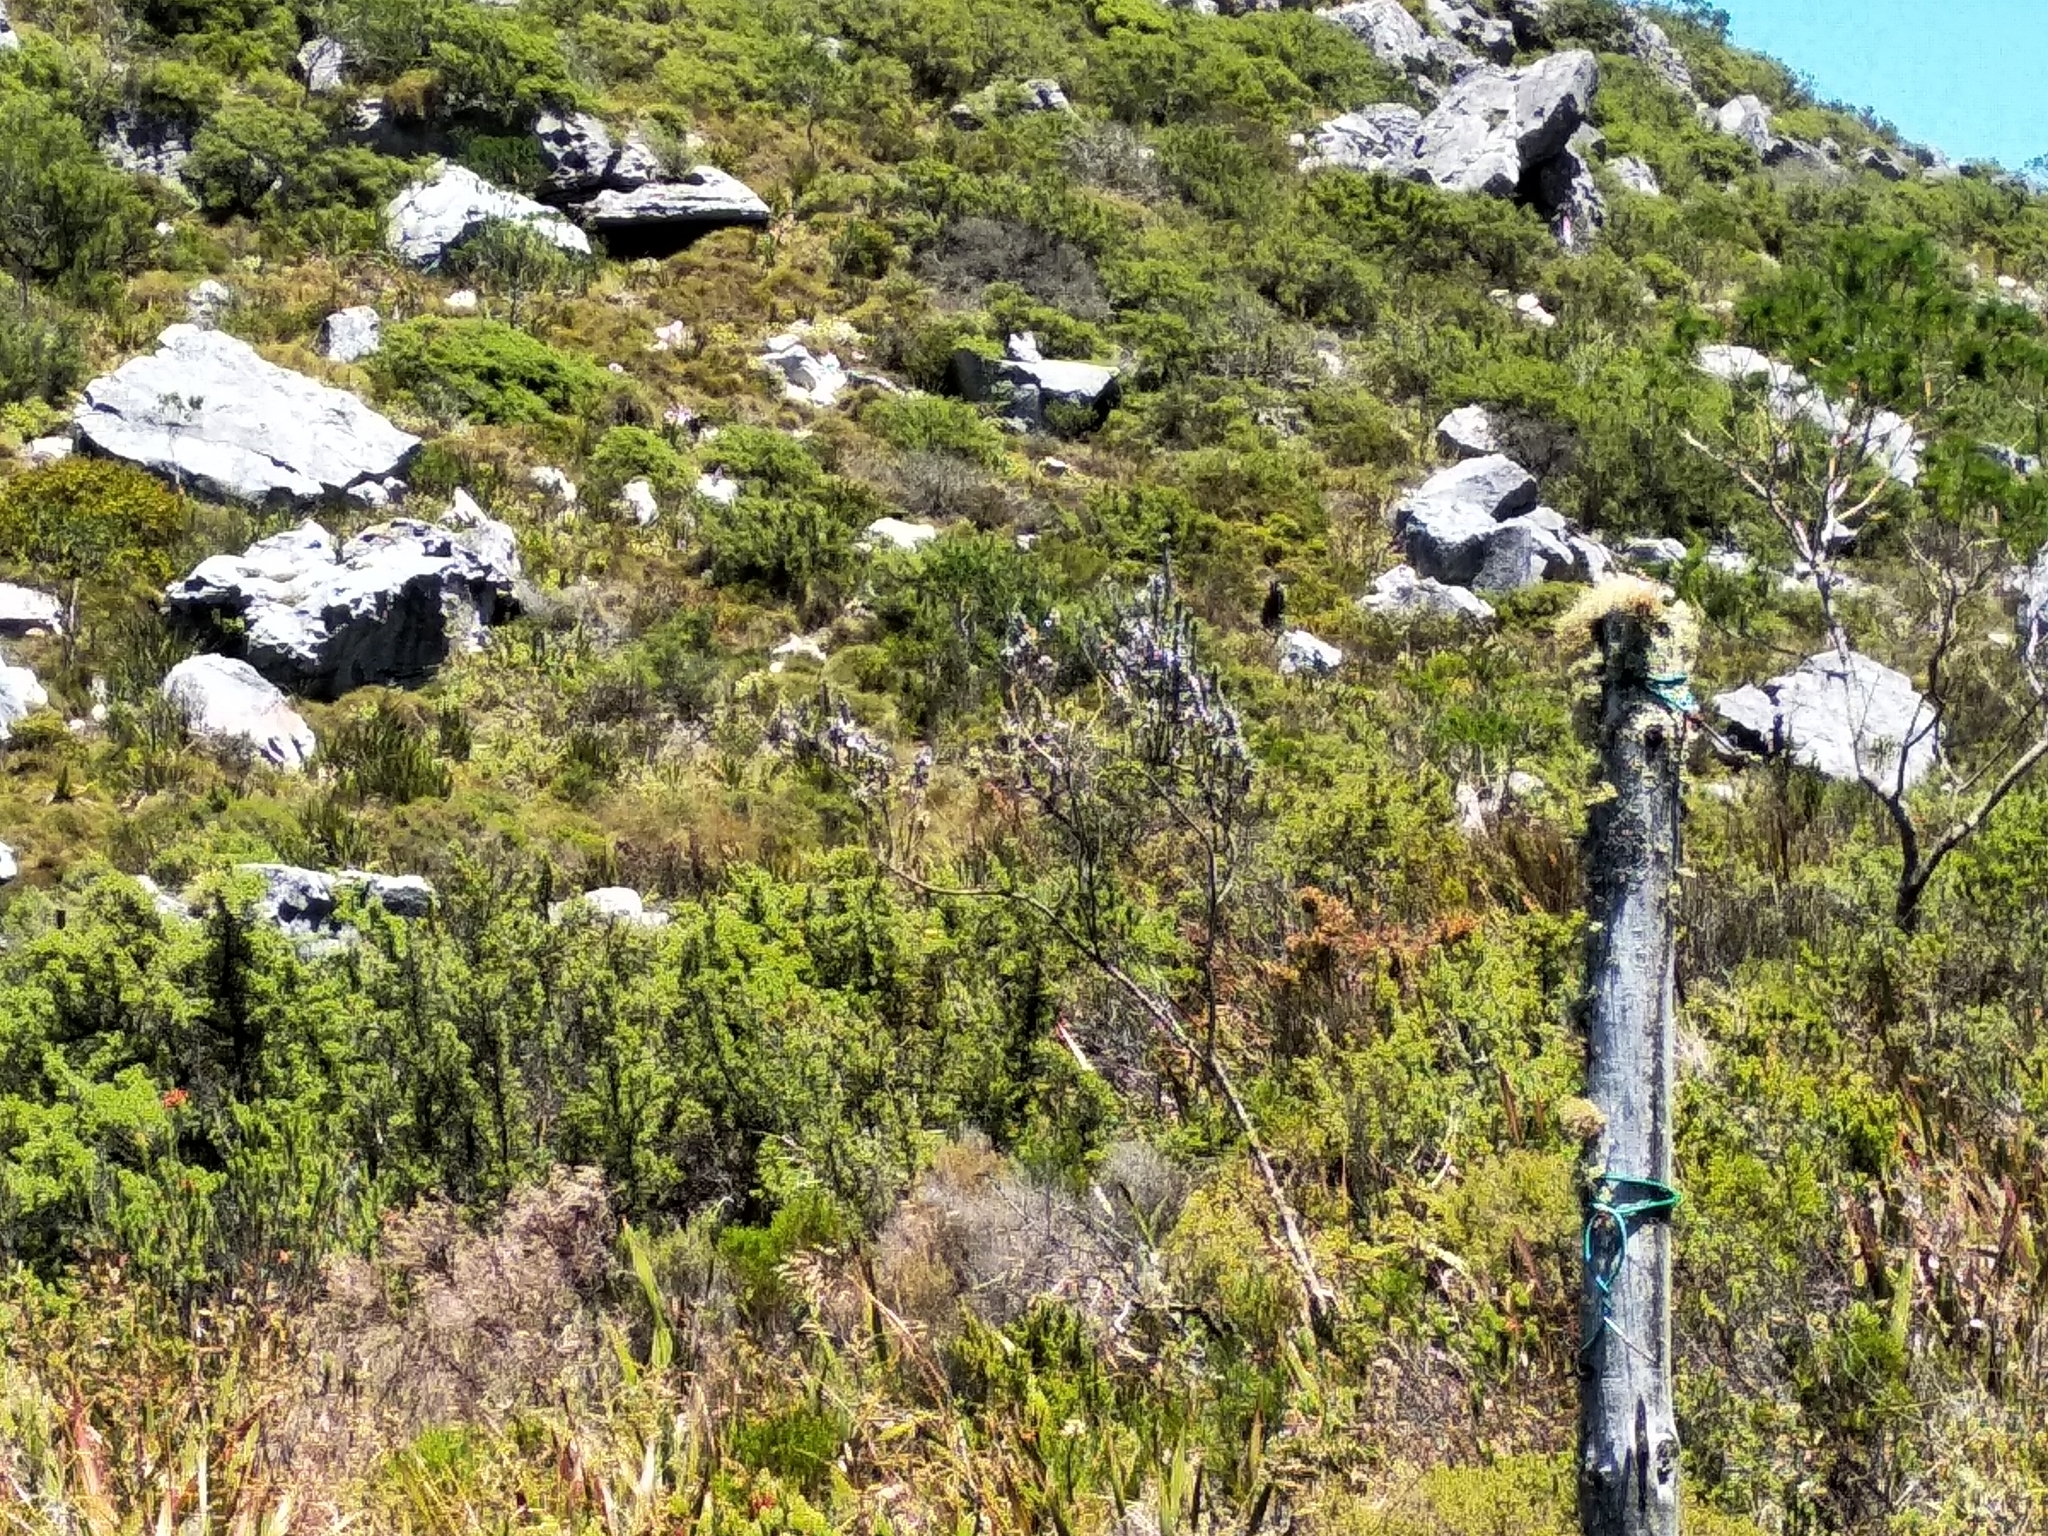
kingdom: Plantae
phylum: Tracheophyta
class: Magnoliopsida
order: Fabales
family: Fabaceae
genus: Amphithalea
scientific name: Amphithalea imbricata
